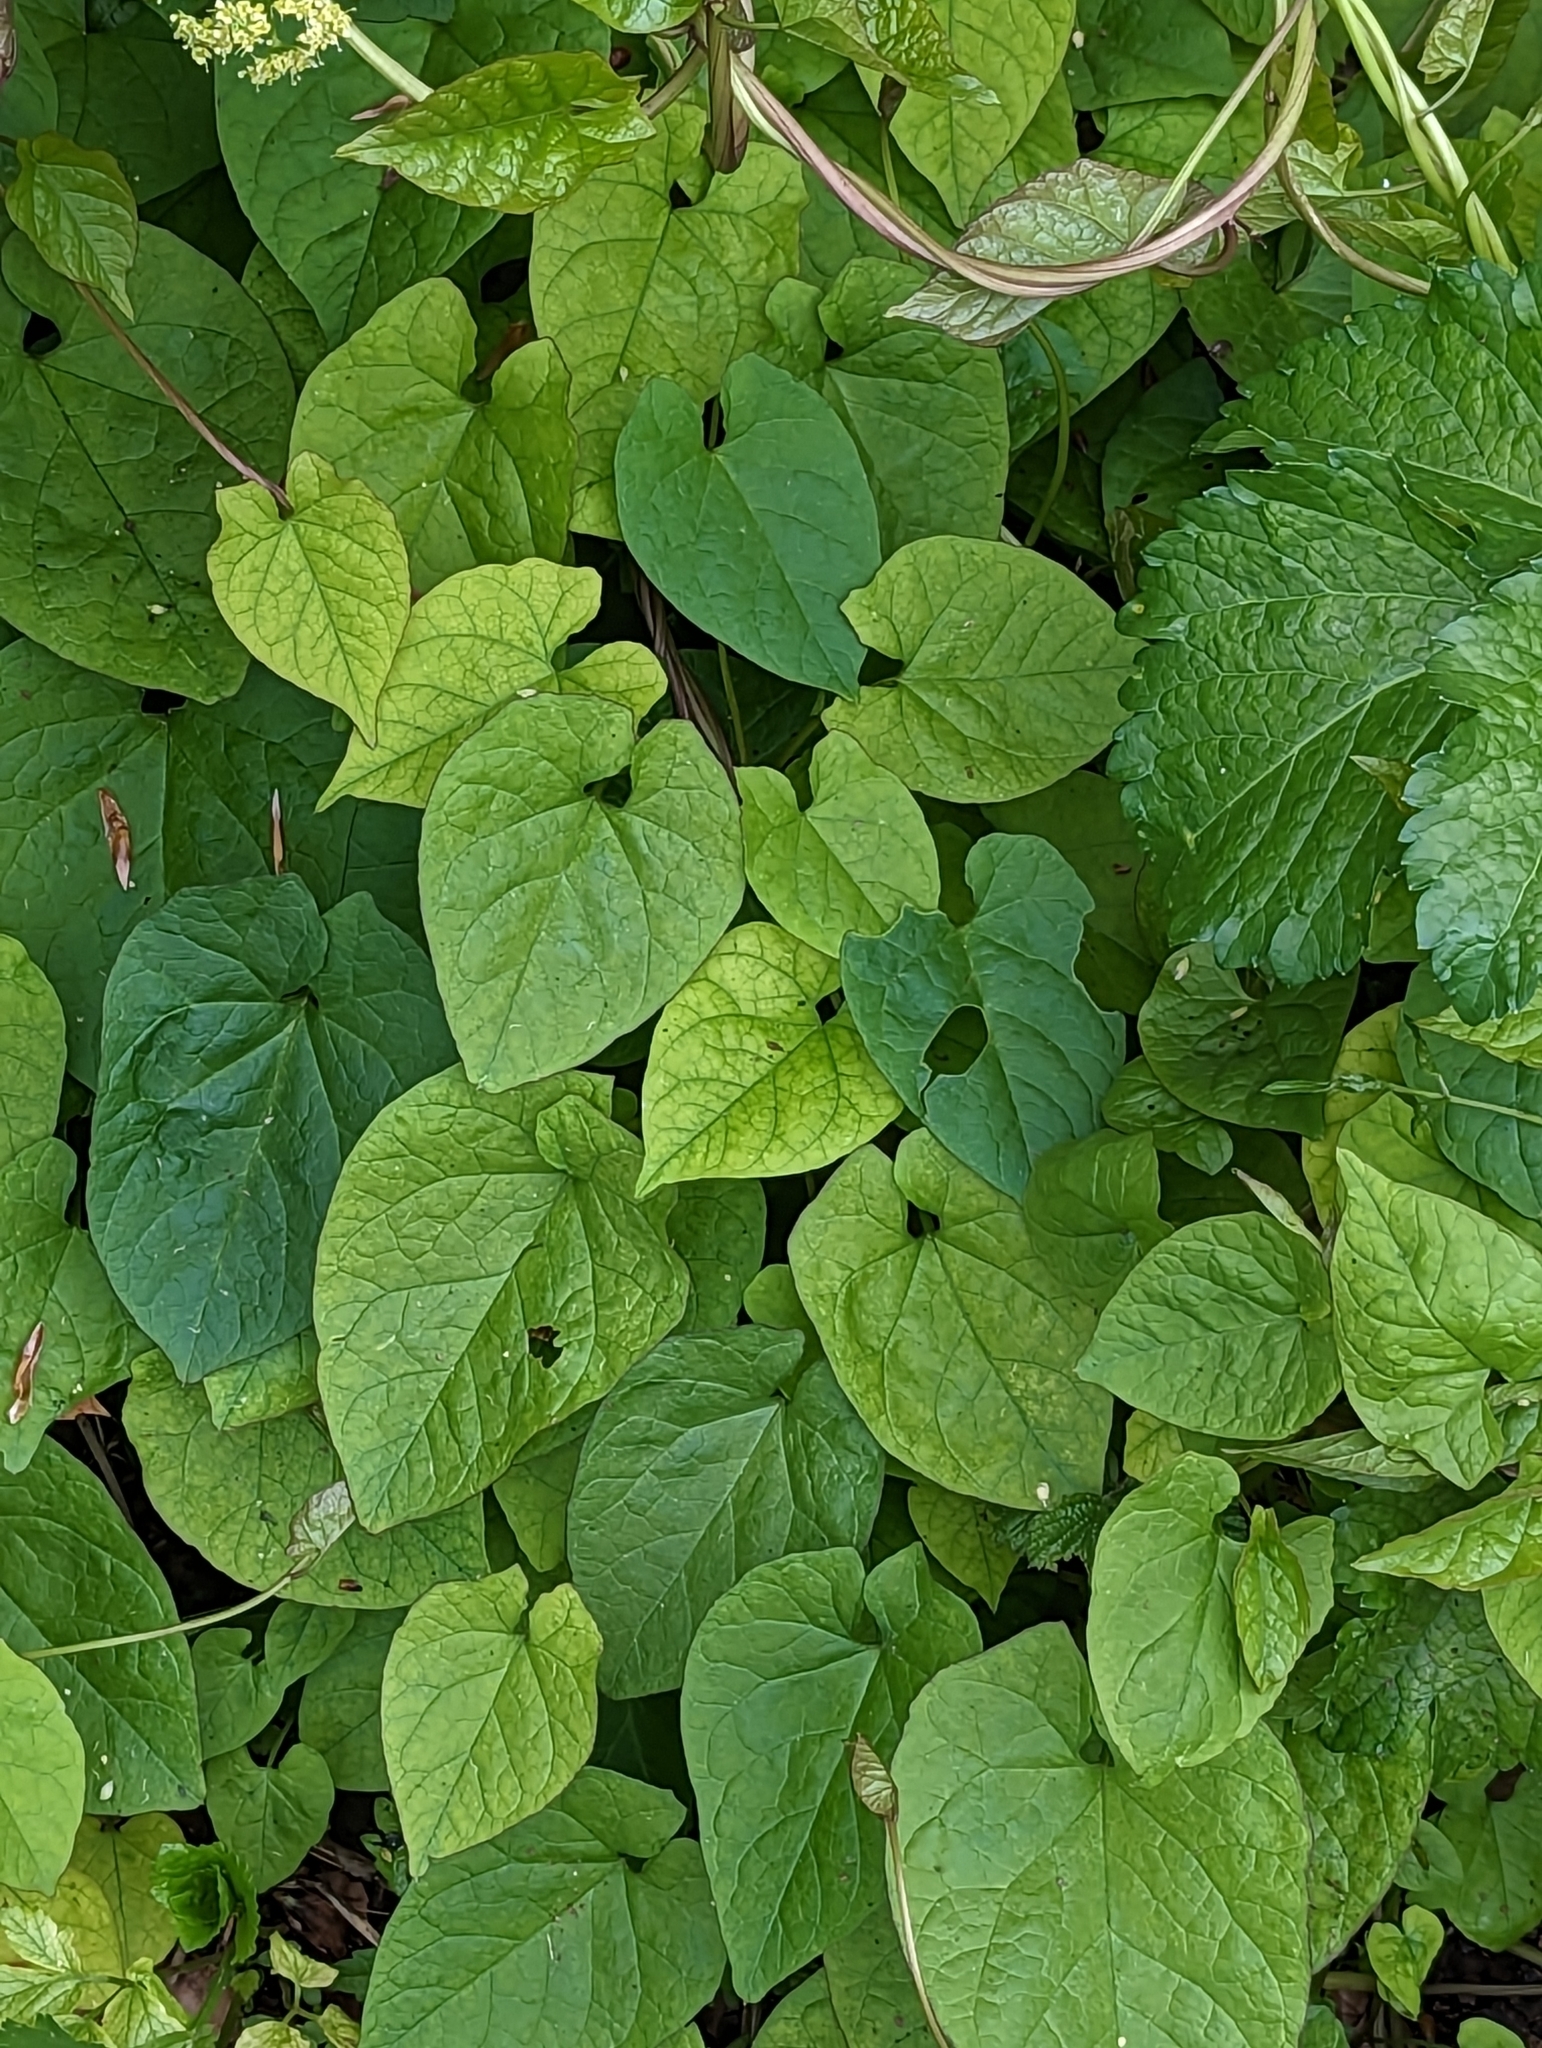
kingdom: Plantae
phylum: Tracheophyta
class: Magnoliopsida
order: Solanales
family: Convolvulaceae
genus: Calystegia
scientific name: Calystegia
